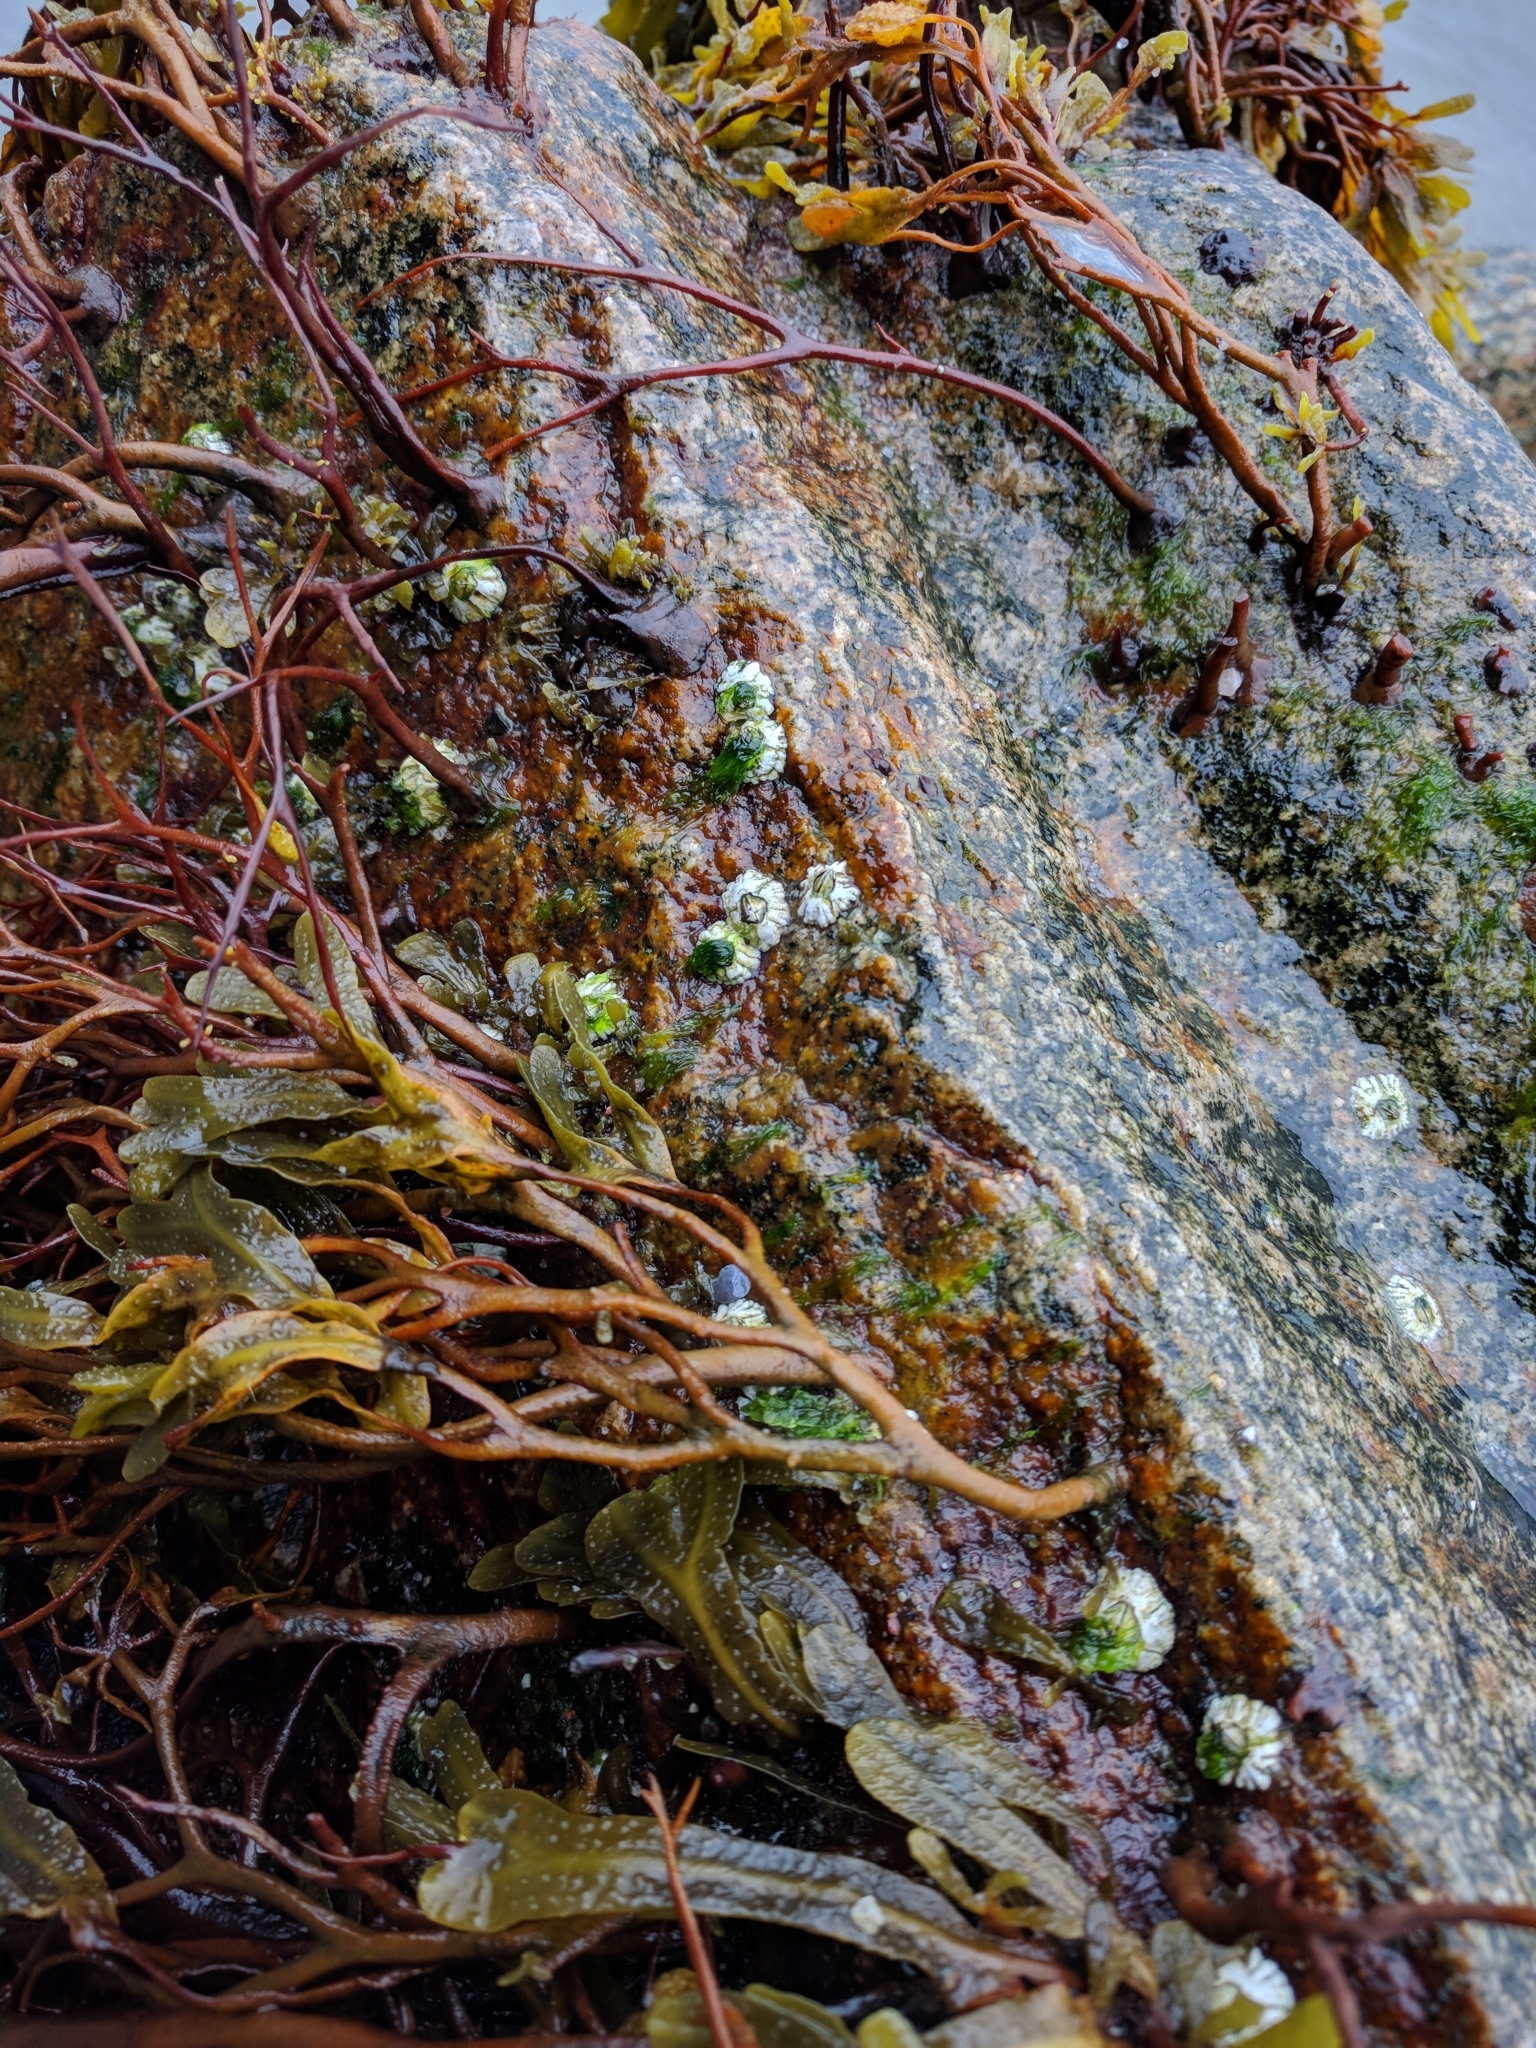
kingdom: Chromista
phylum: Ochrophyta
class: Phaeophyceae
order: Fucales
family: Fucaceae
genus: Fucus
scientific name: Fucus spiralis
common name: Spiral wrack
